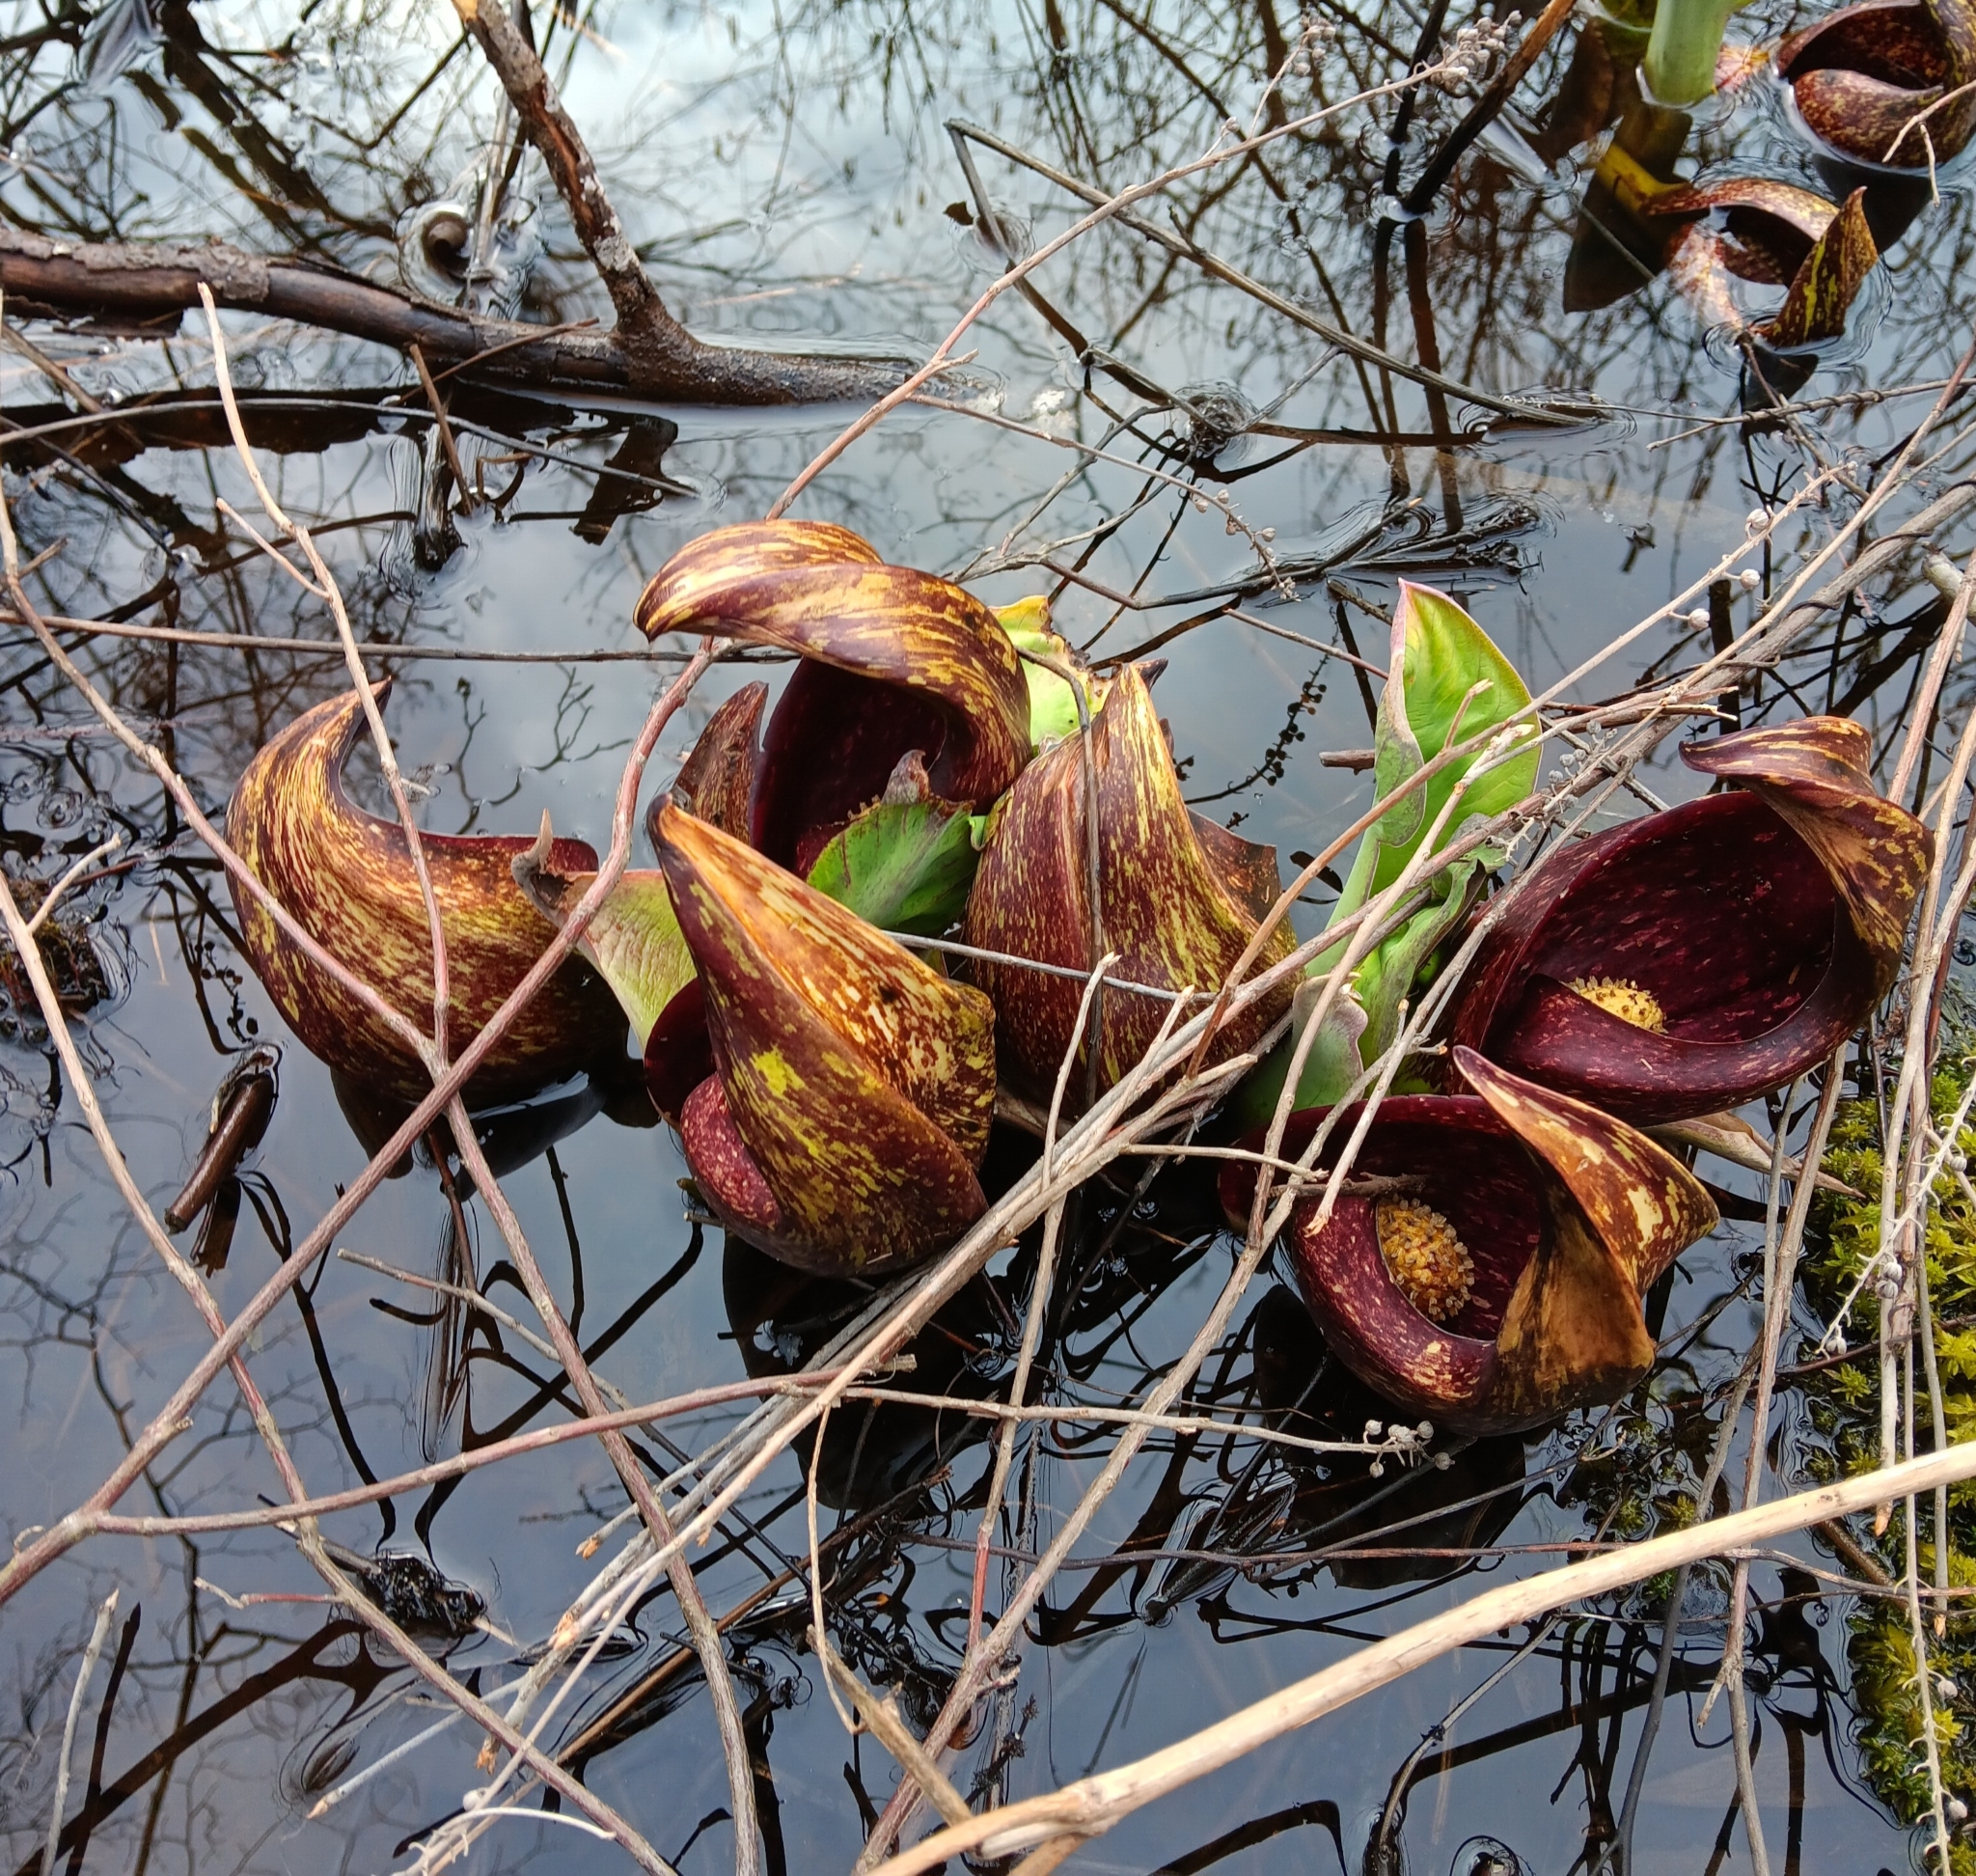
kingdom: Plantae
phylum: Tracheophyta
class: Liliopsida
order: Alismatales
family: Araceae
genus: Symplocarpus
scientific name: Symplocarpus foetidus
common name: Eastern skunk cabbage
